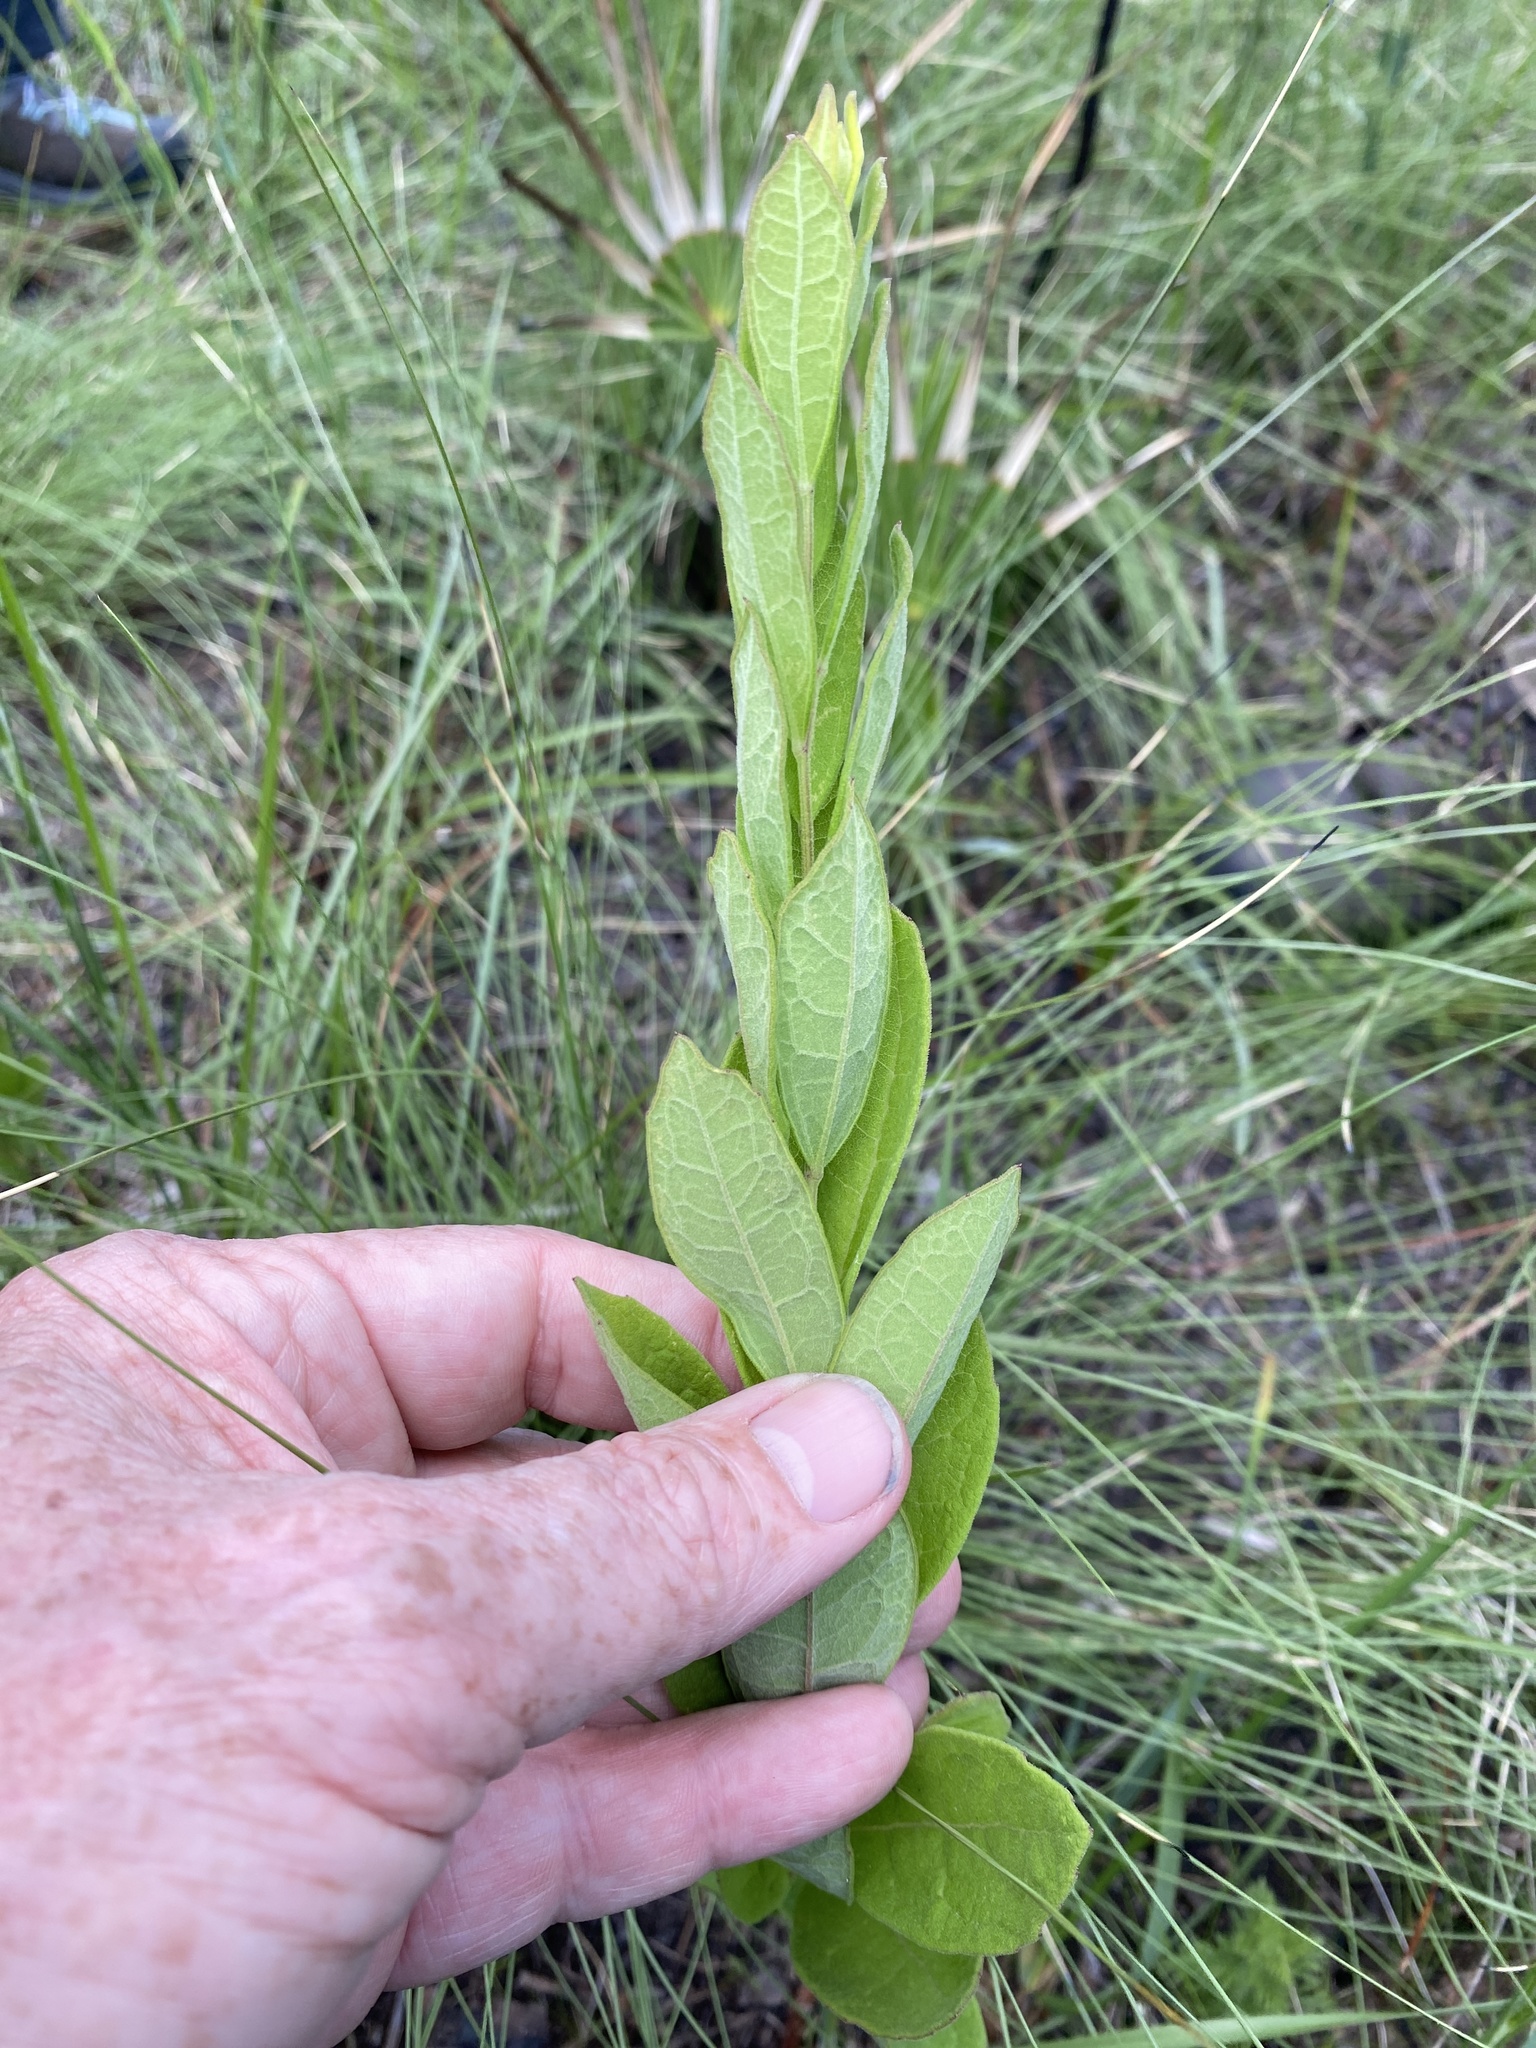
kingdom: Plantae
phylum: Tracheophyta
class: Magnoliopsida
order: Asterales
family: Asteraceae
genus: Oclemena
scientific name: Oclemena reticulata
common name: Pinebarren aster
